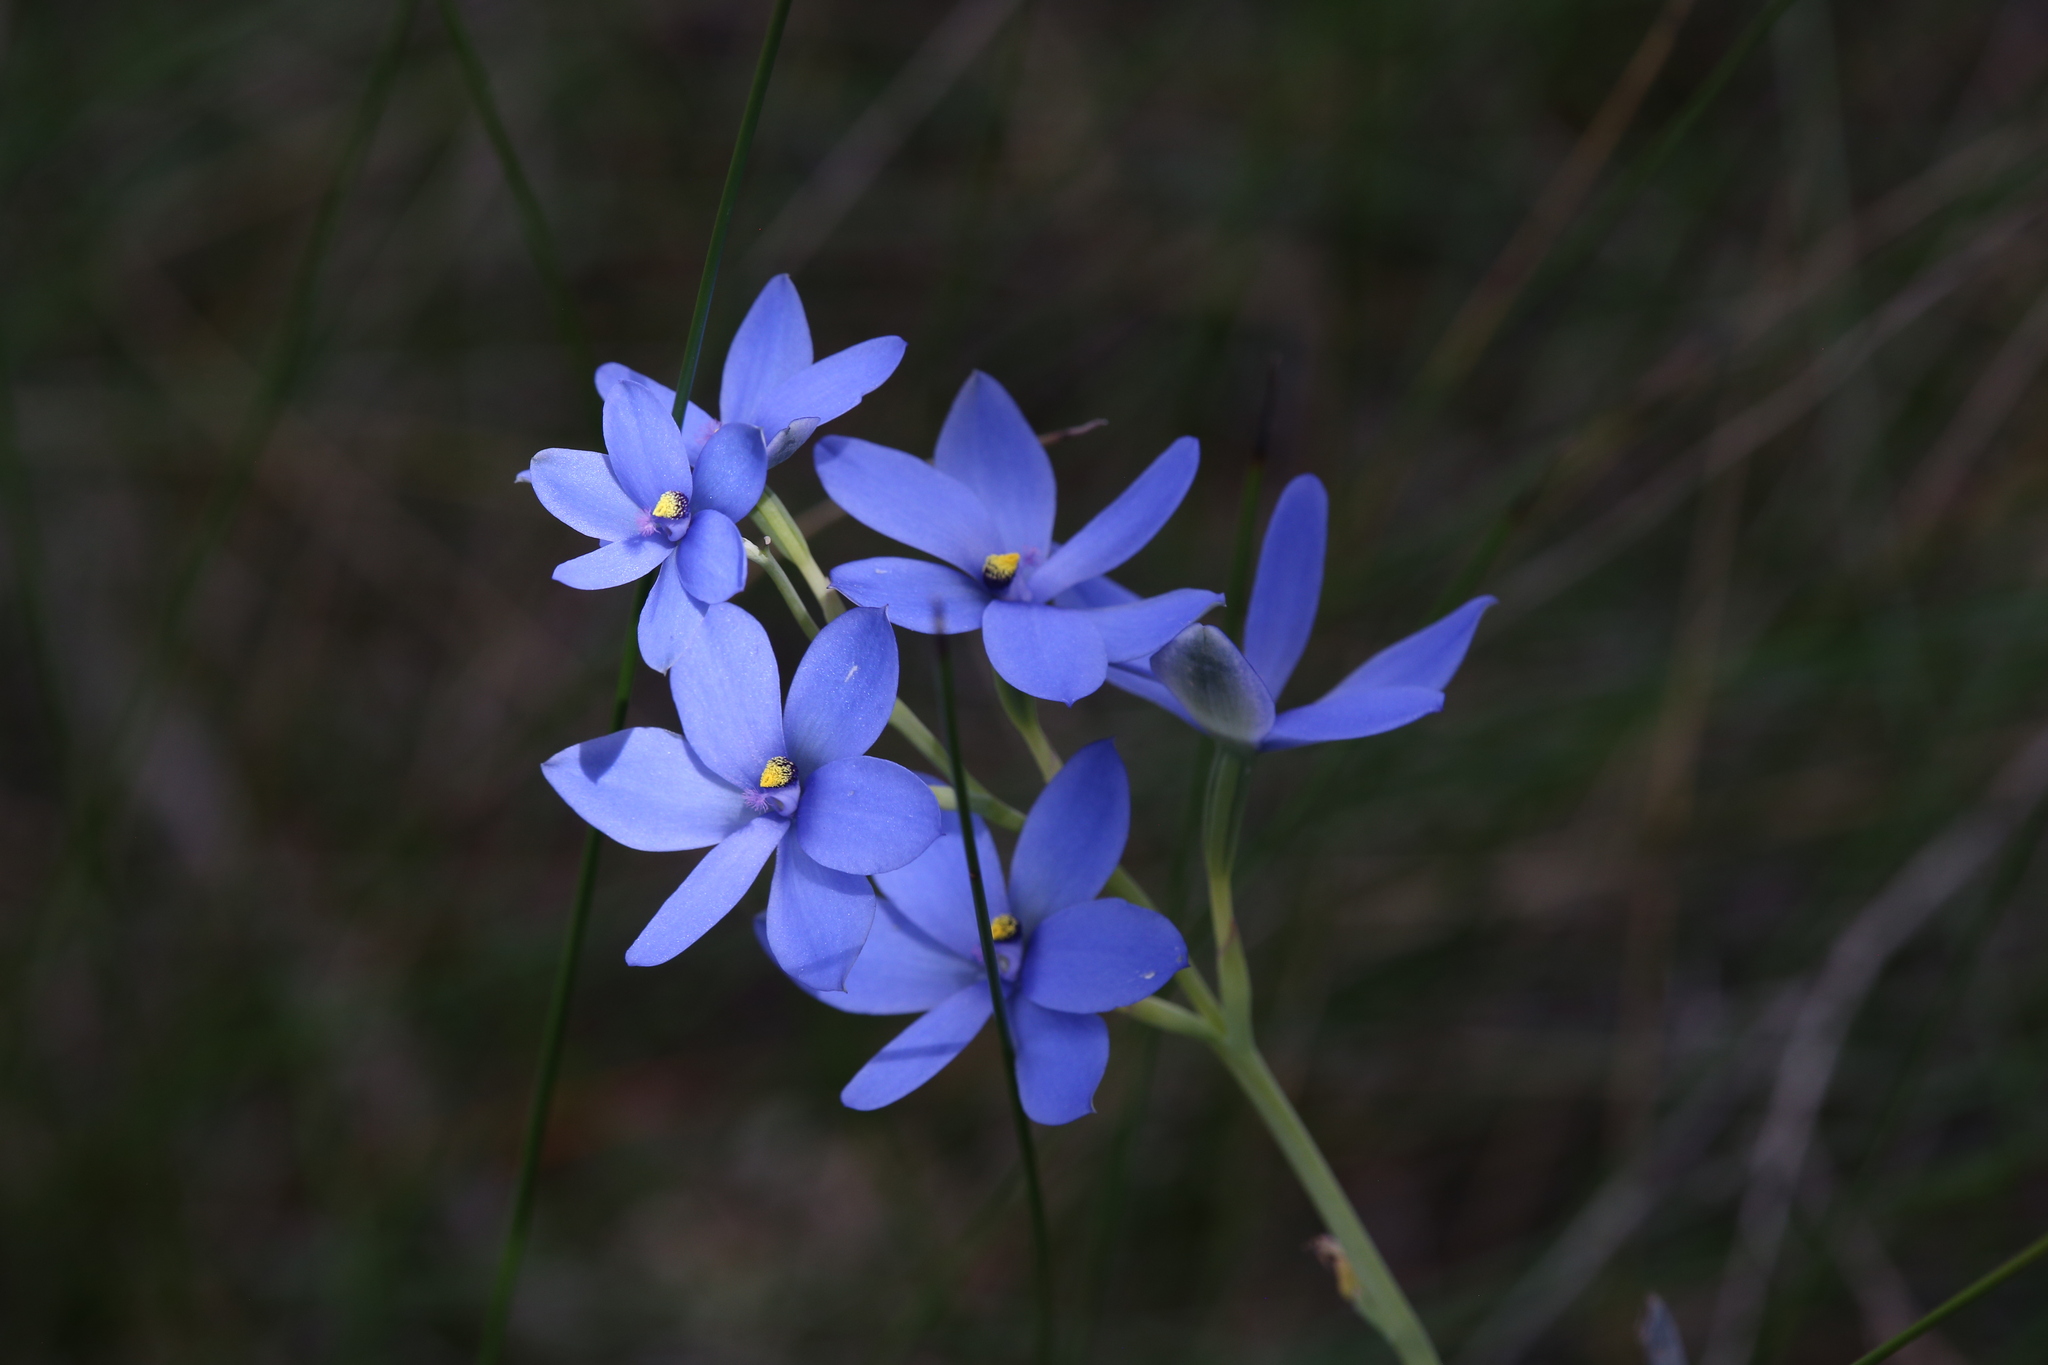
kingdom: Plantae
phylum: Tracheophyta
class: Liliopsida
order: Asparagales
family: Orchidaceae
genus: Thelymitra
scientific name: Thelymitra crinita
